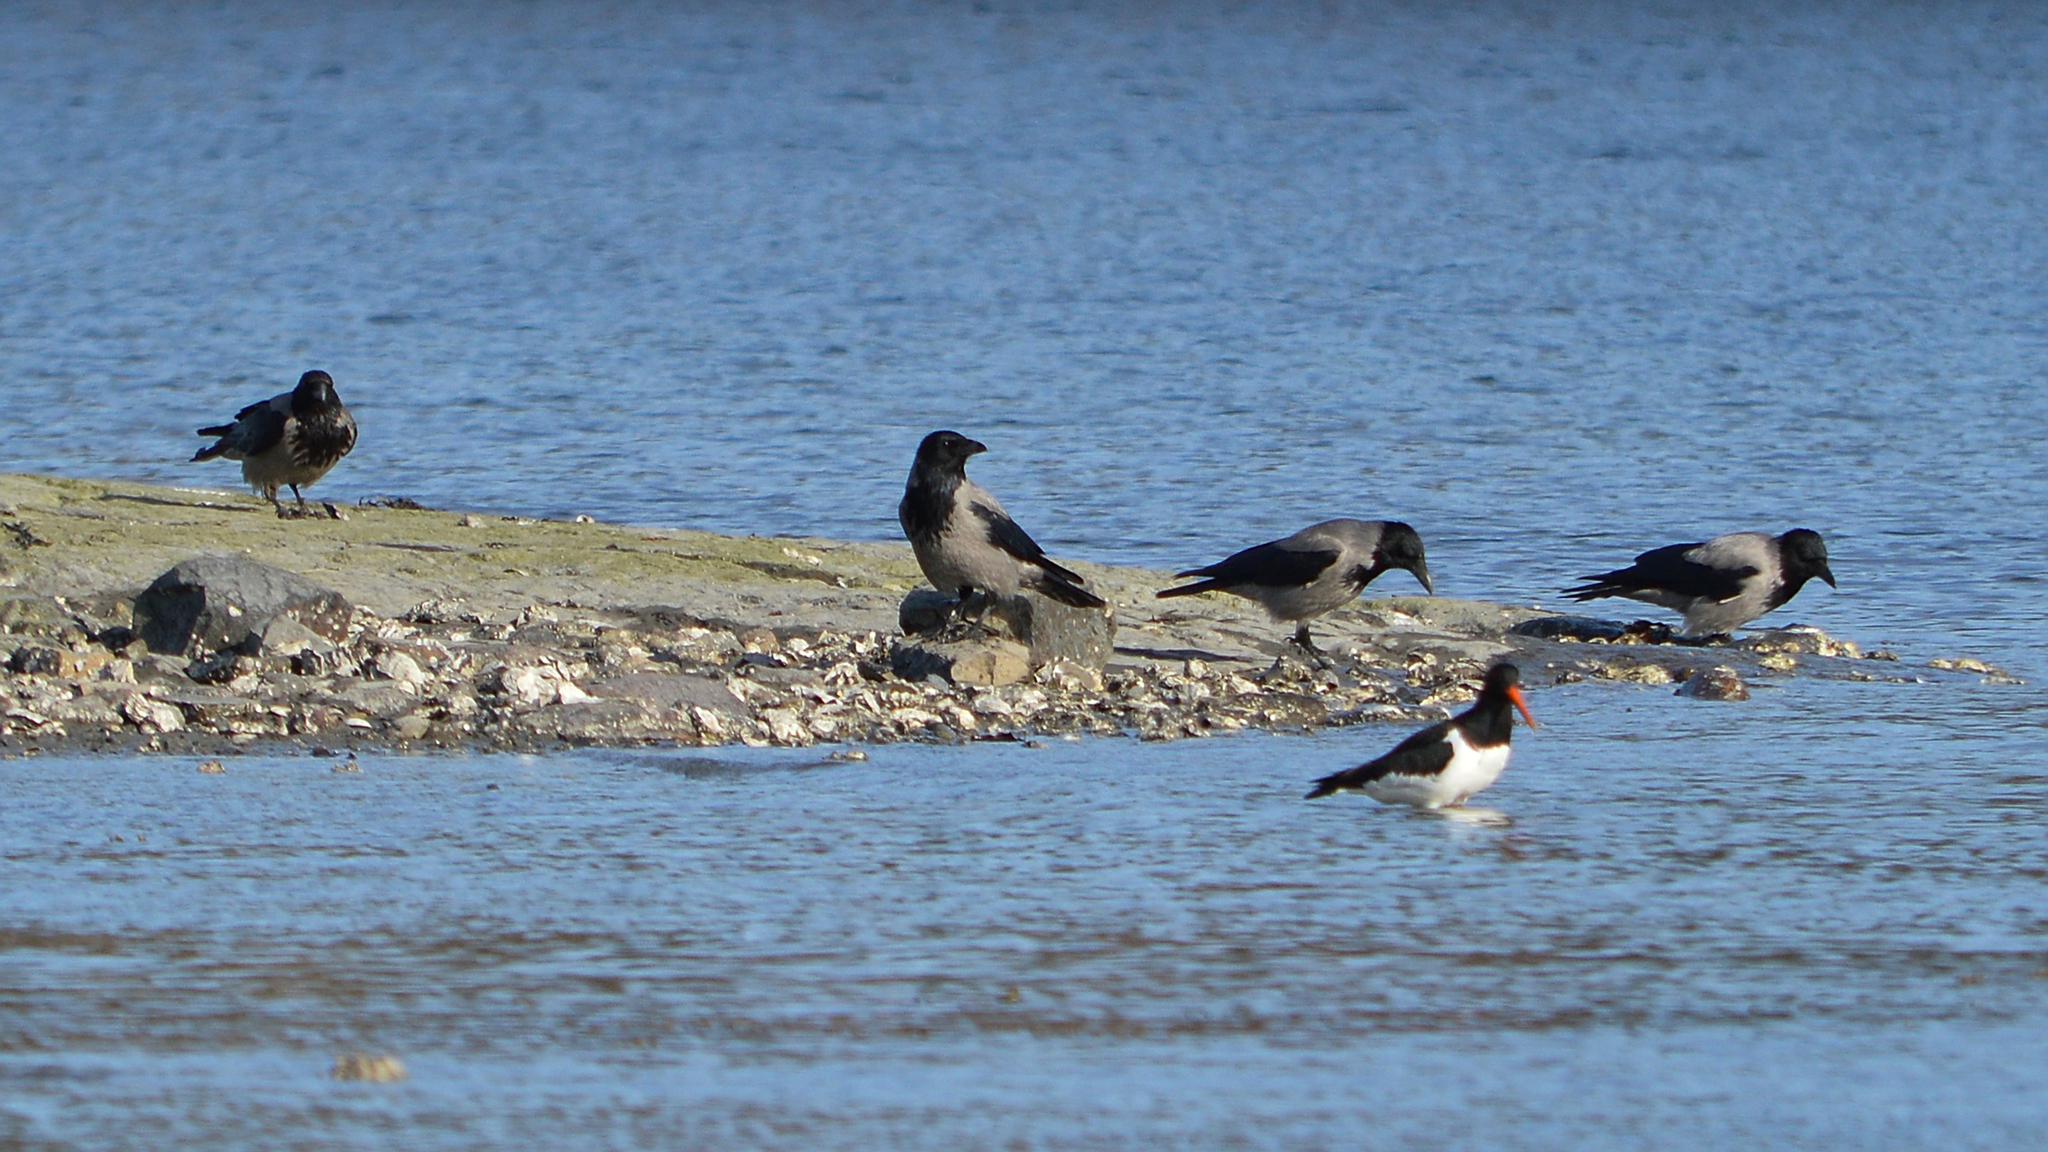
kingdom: Animalia
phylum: Chordata
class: Aves
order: Charadriiformes
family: Haematopodidae
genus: Haematopus
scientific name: Haematopus ostralegus
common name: Eurasian oystercatcher
